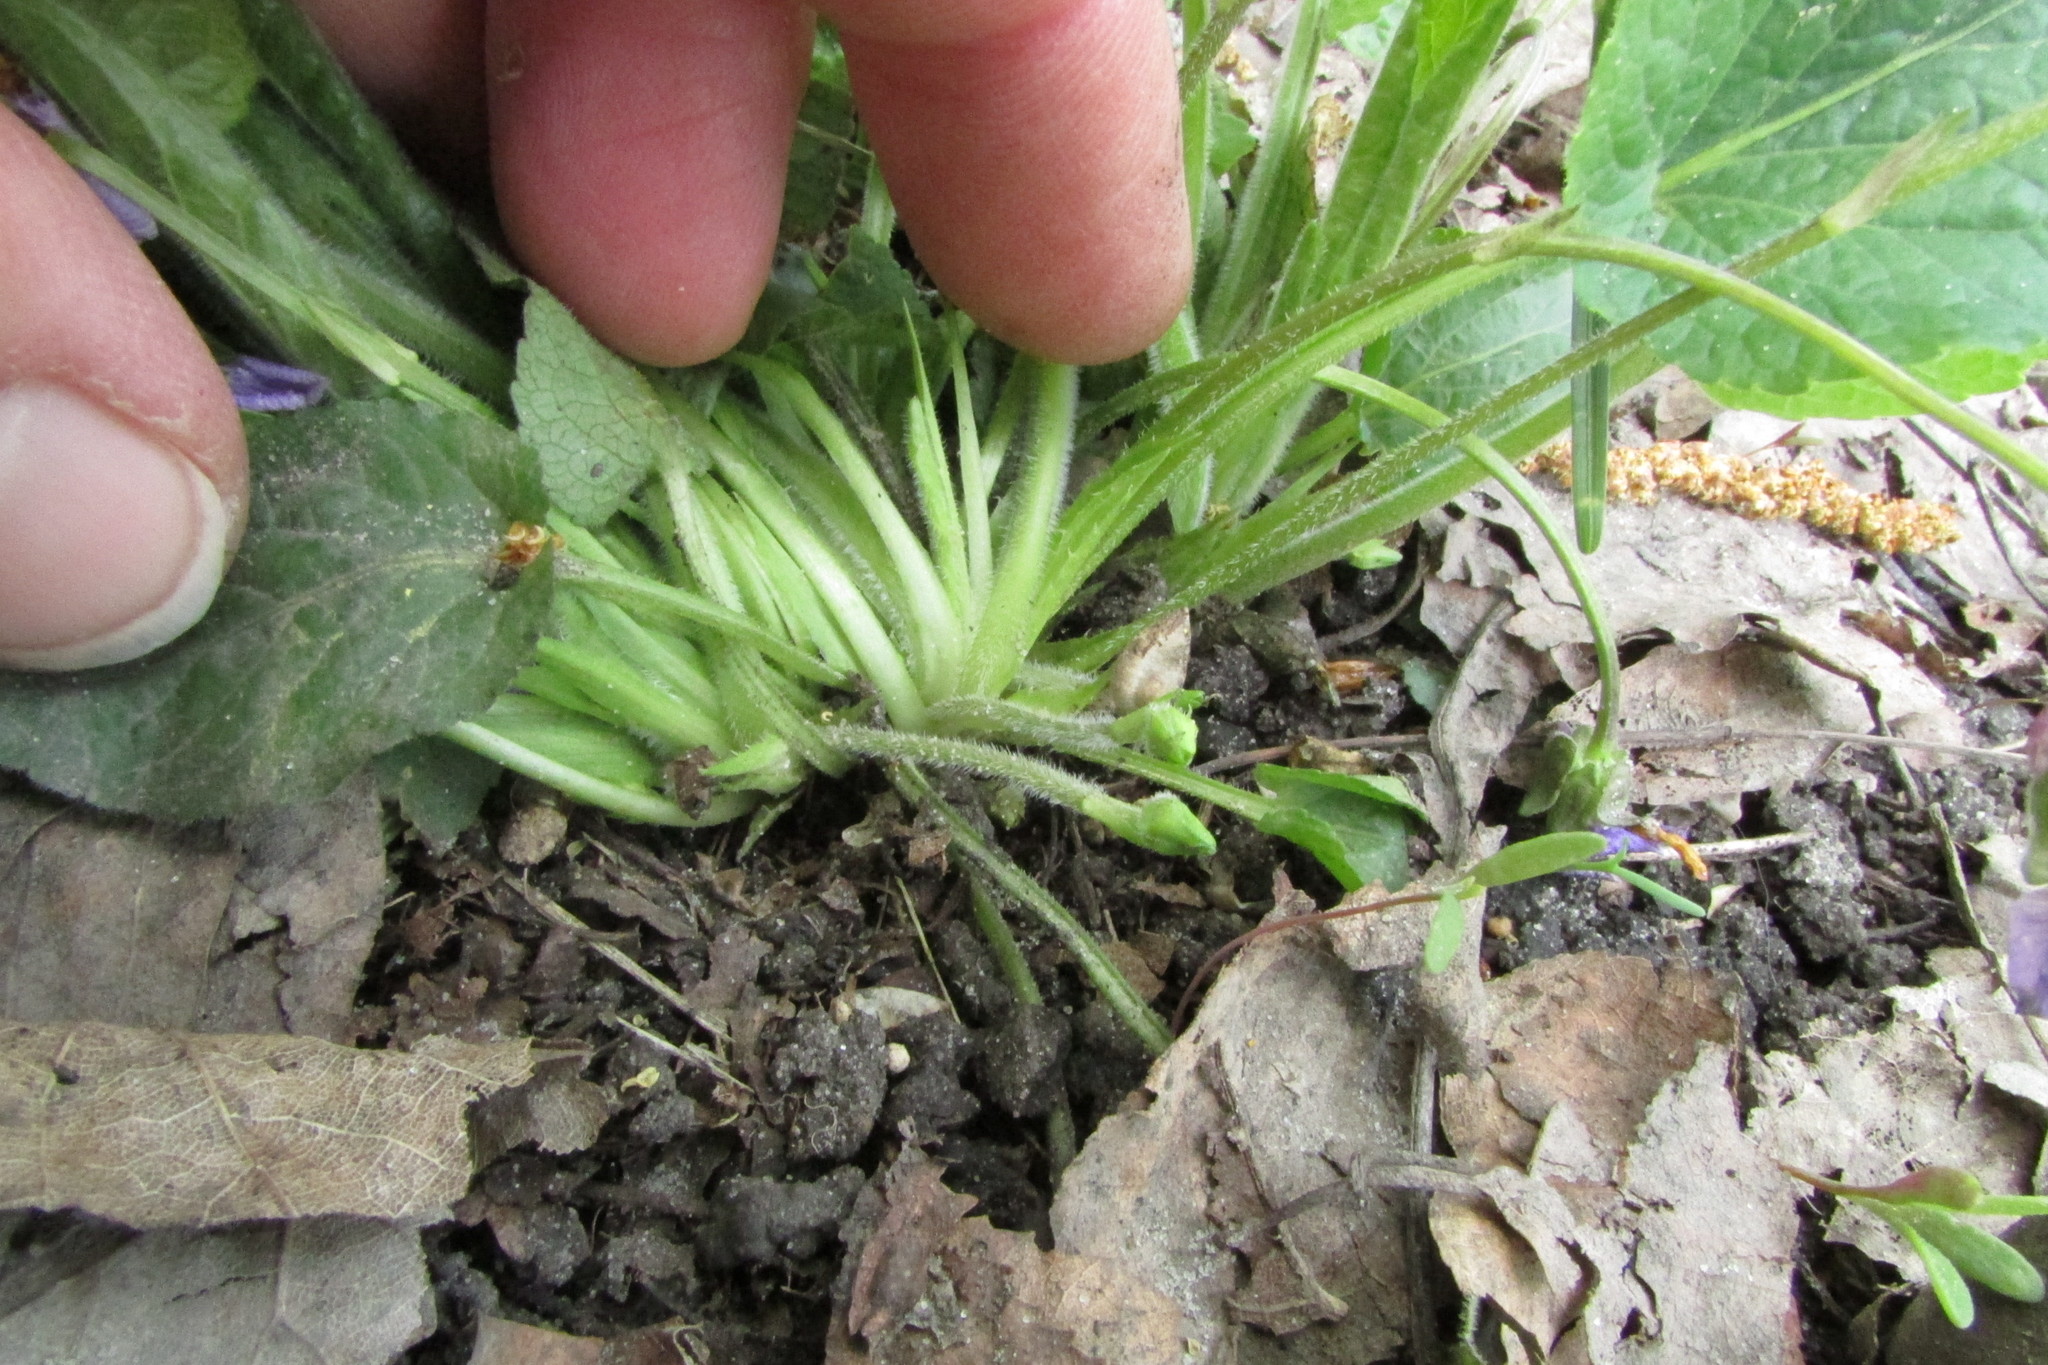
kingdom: Plantae
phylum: Tracheophyta
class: Magnoliopsida
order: Malpighiales
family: Violaceae
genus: Viola
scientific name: Viola hirta
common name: Hairy violet
